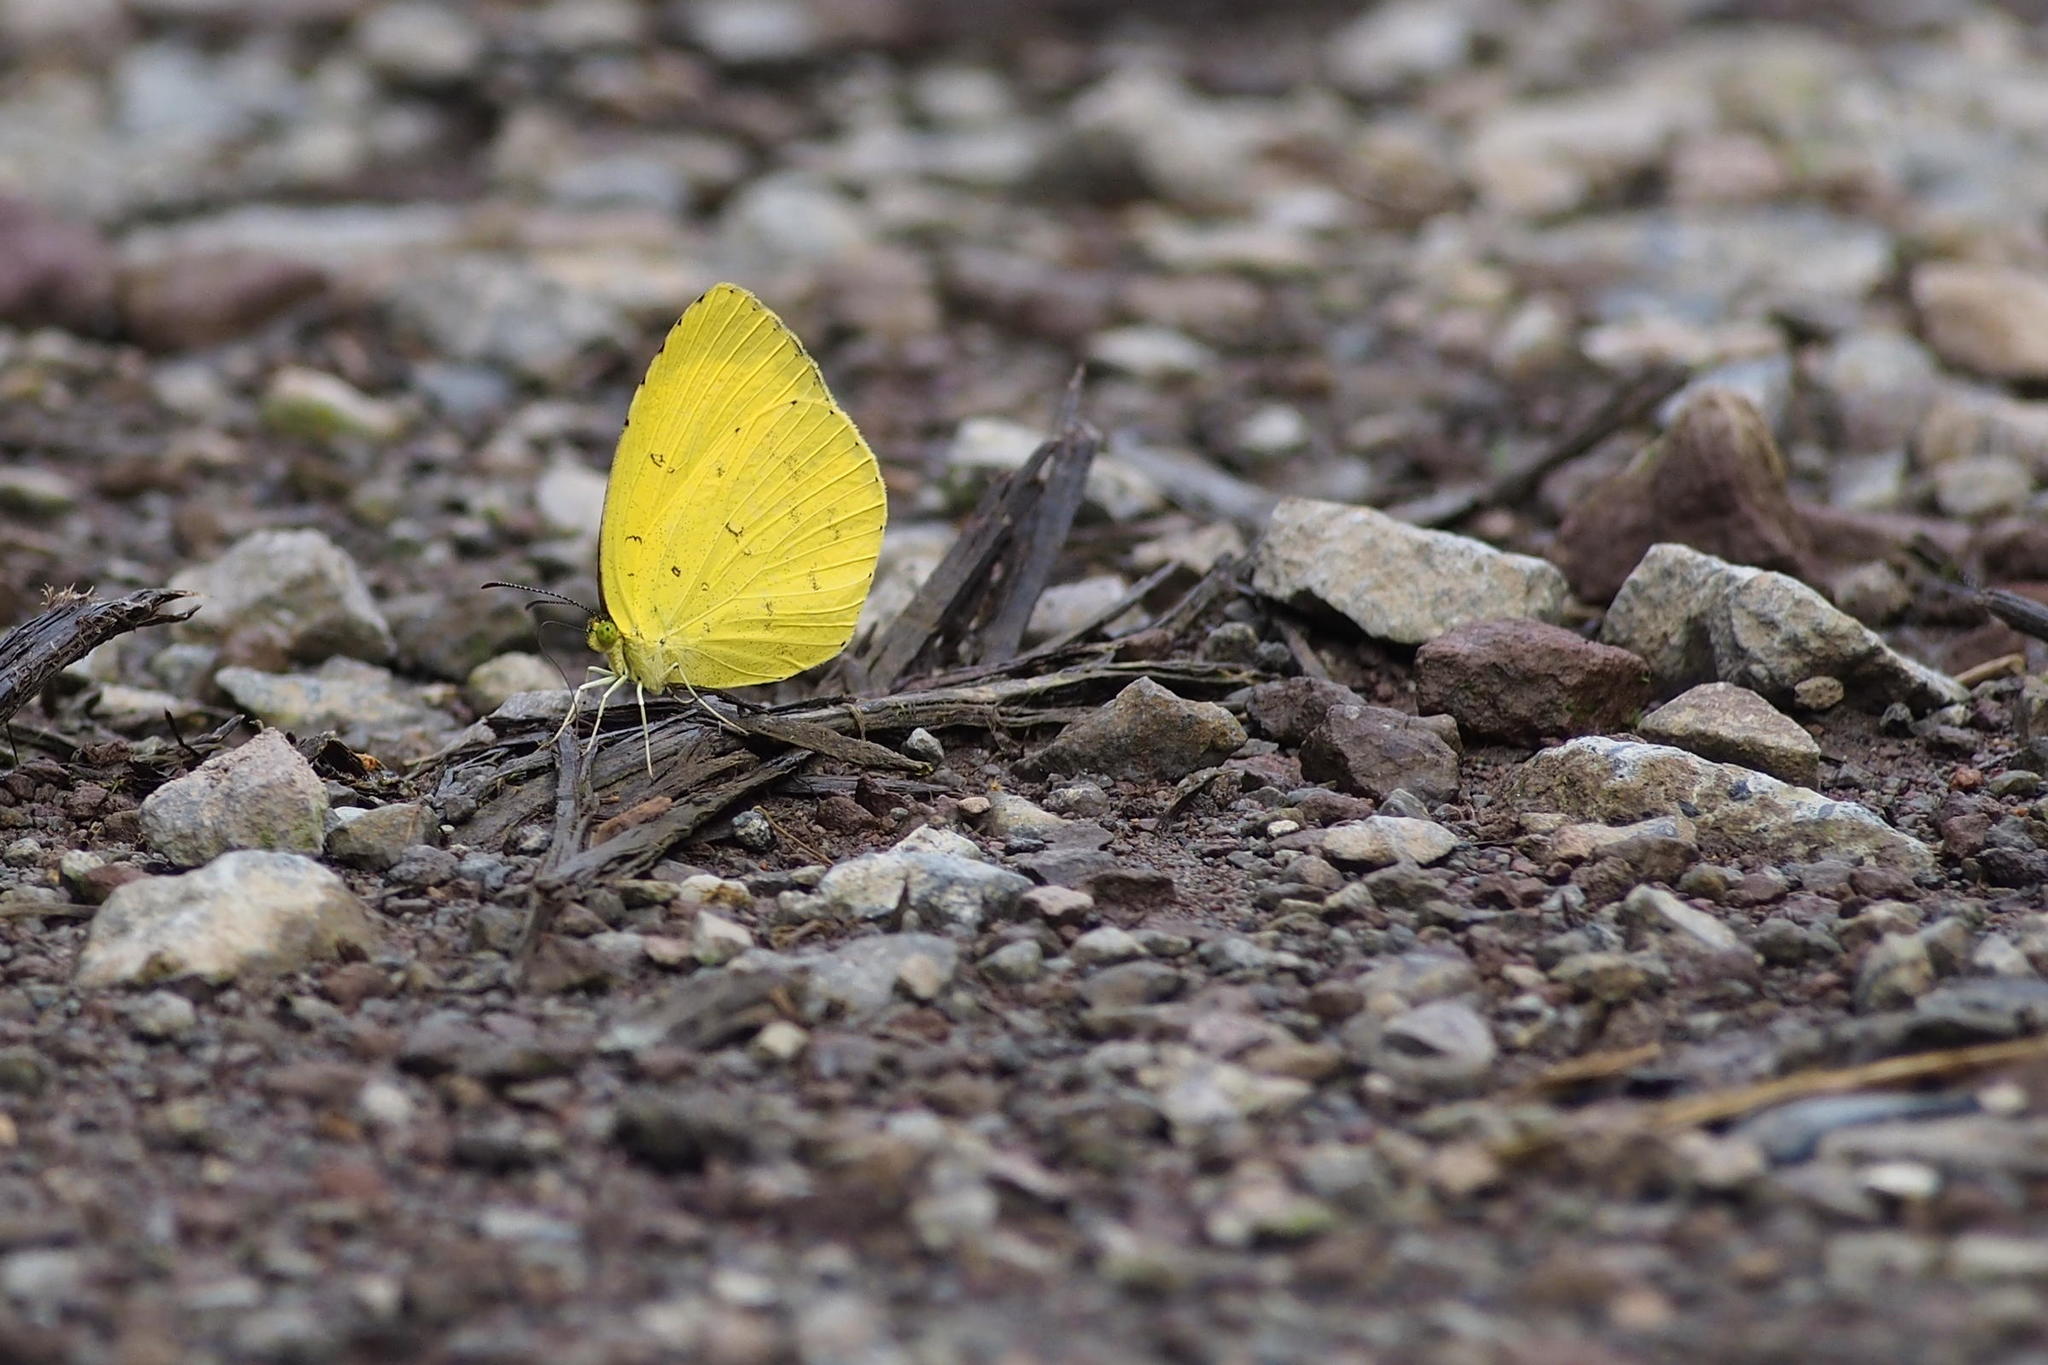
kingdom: Animalia
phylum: Arthropoda
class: Insecta
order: Lepidoptera
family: Pieridae
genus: Eurema
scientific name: Eurema mandarina
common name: Japanese common grass yellow
